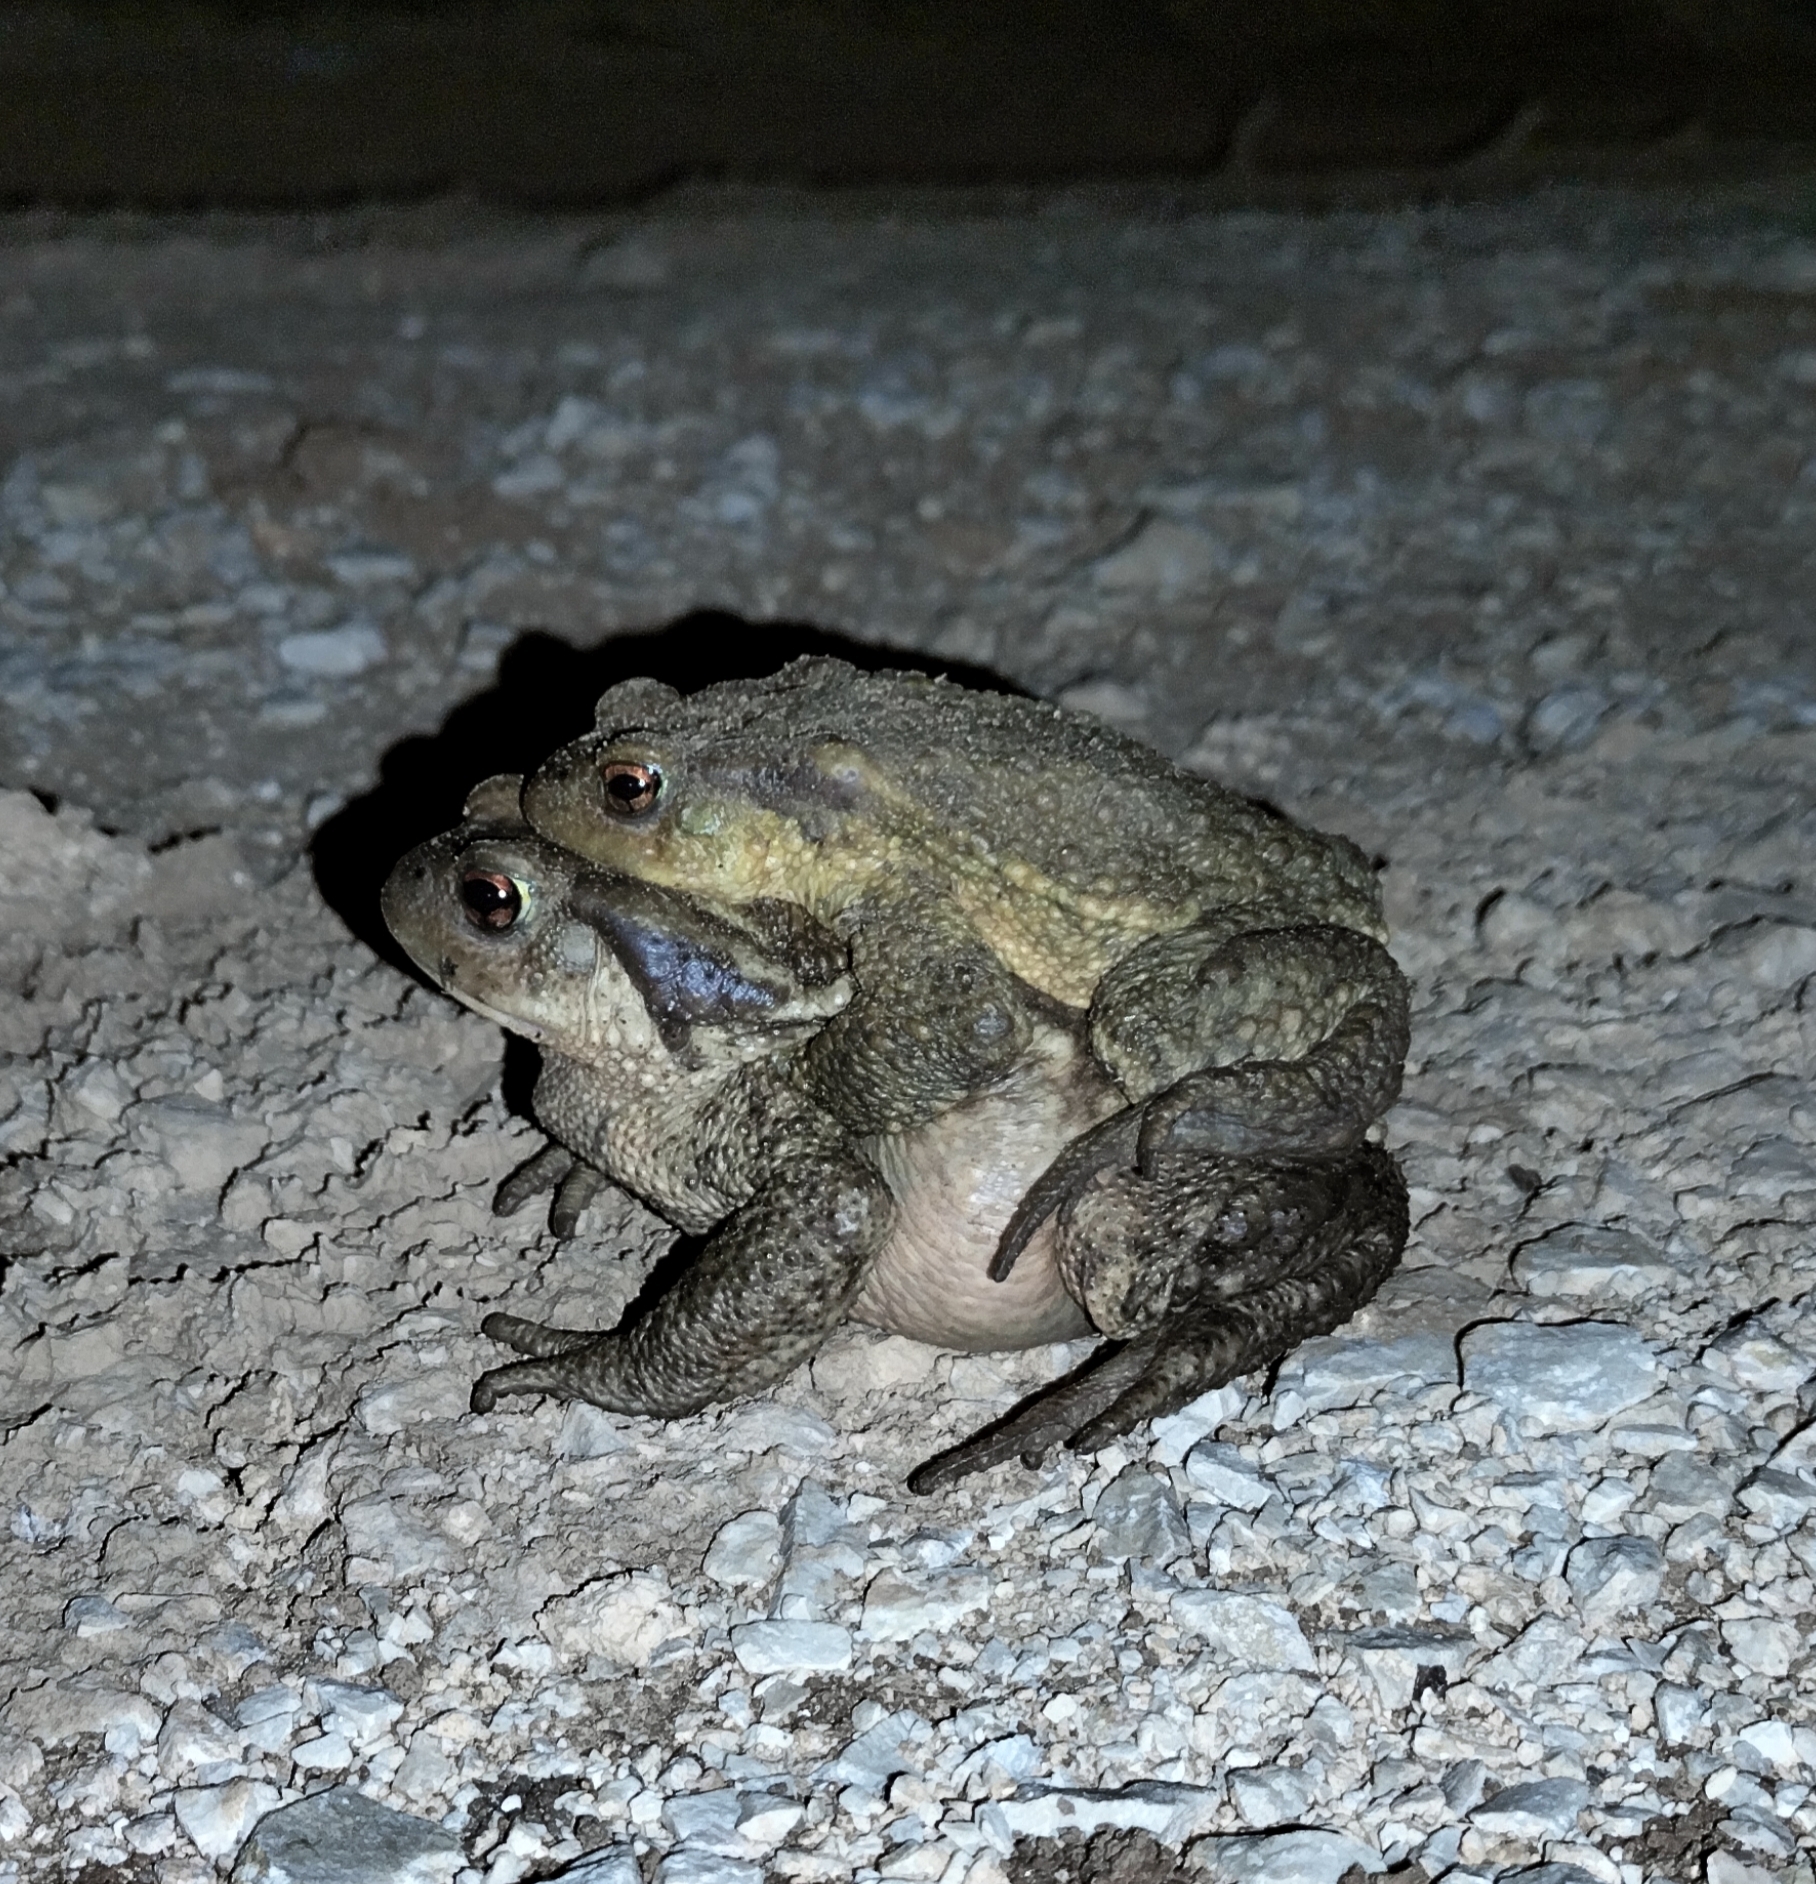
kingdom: Animalia
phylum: Chordata
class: Amphibia
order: Anura
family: Bufonidae
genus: Bufo
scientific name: Bufo spinosus
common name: Western common toad
